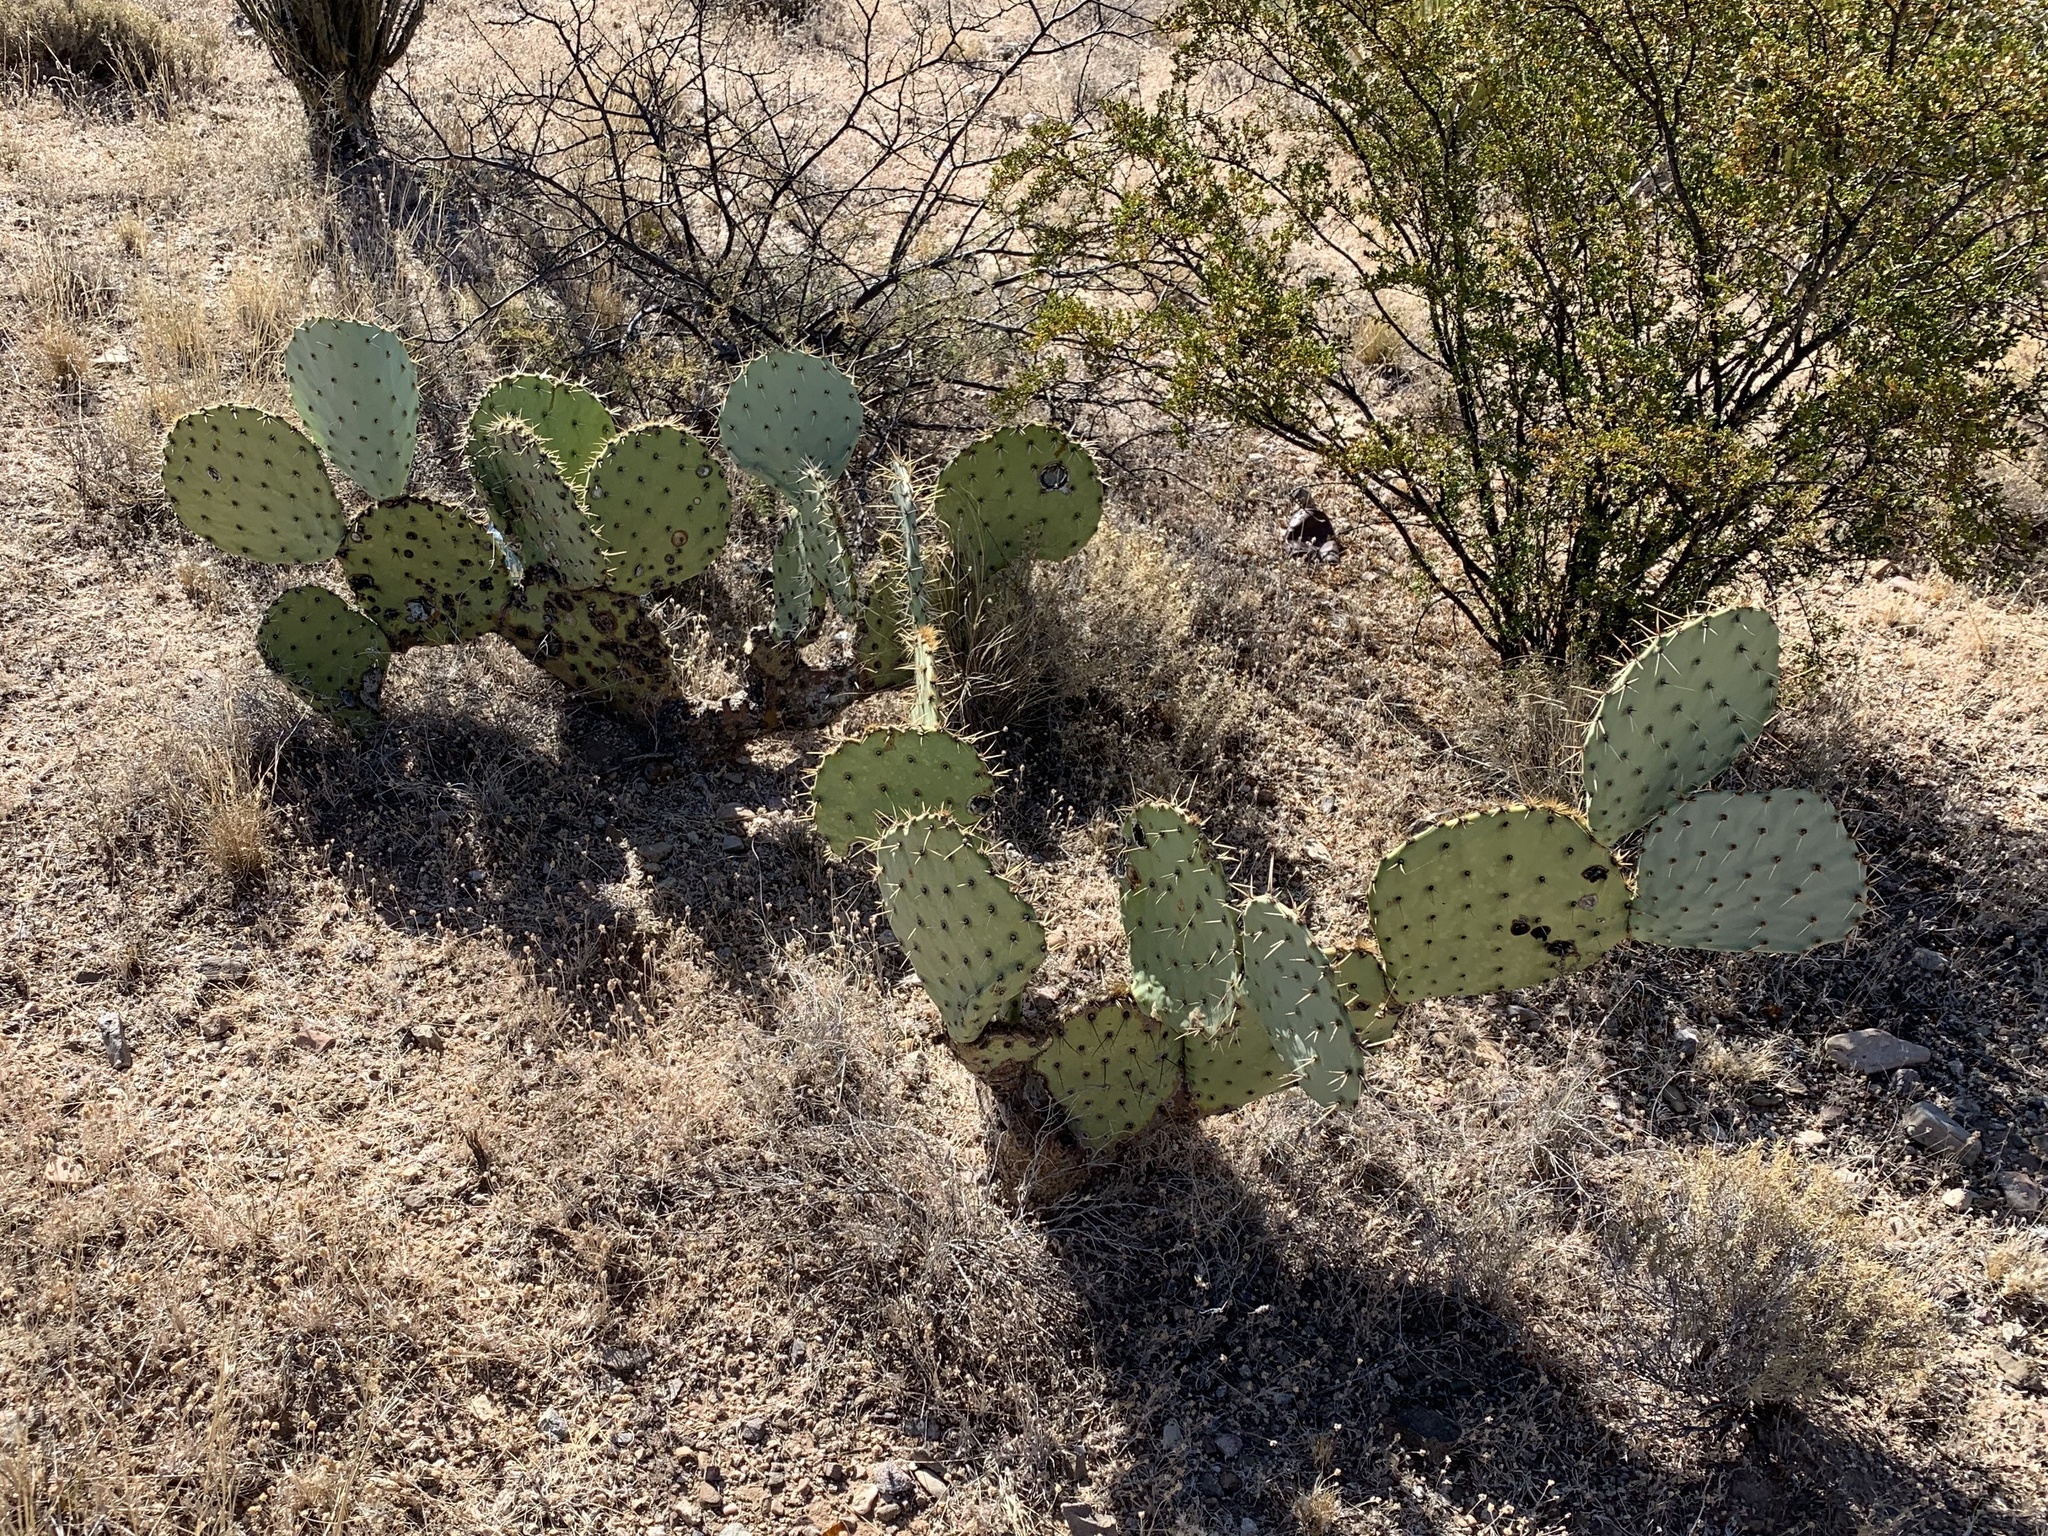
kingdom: Plantae
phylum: Tracheophyta
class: Magnoliopsida
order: Caryophyllales
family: Cactaceae
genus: Opuntia
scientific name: Opuntia engelmannii
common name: Cactus-apple
